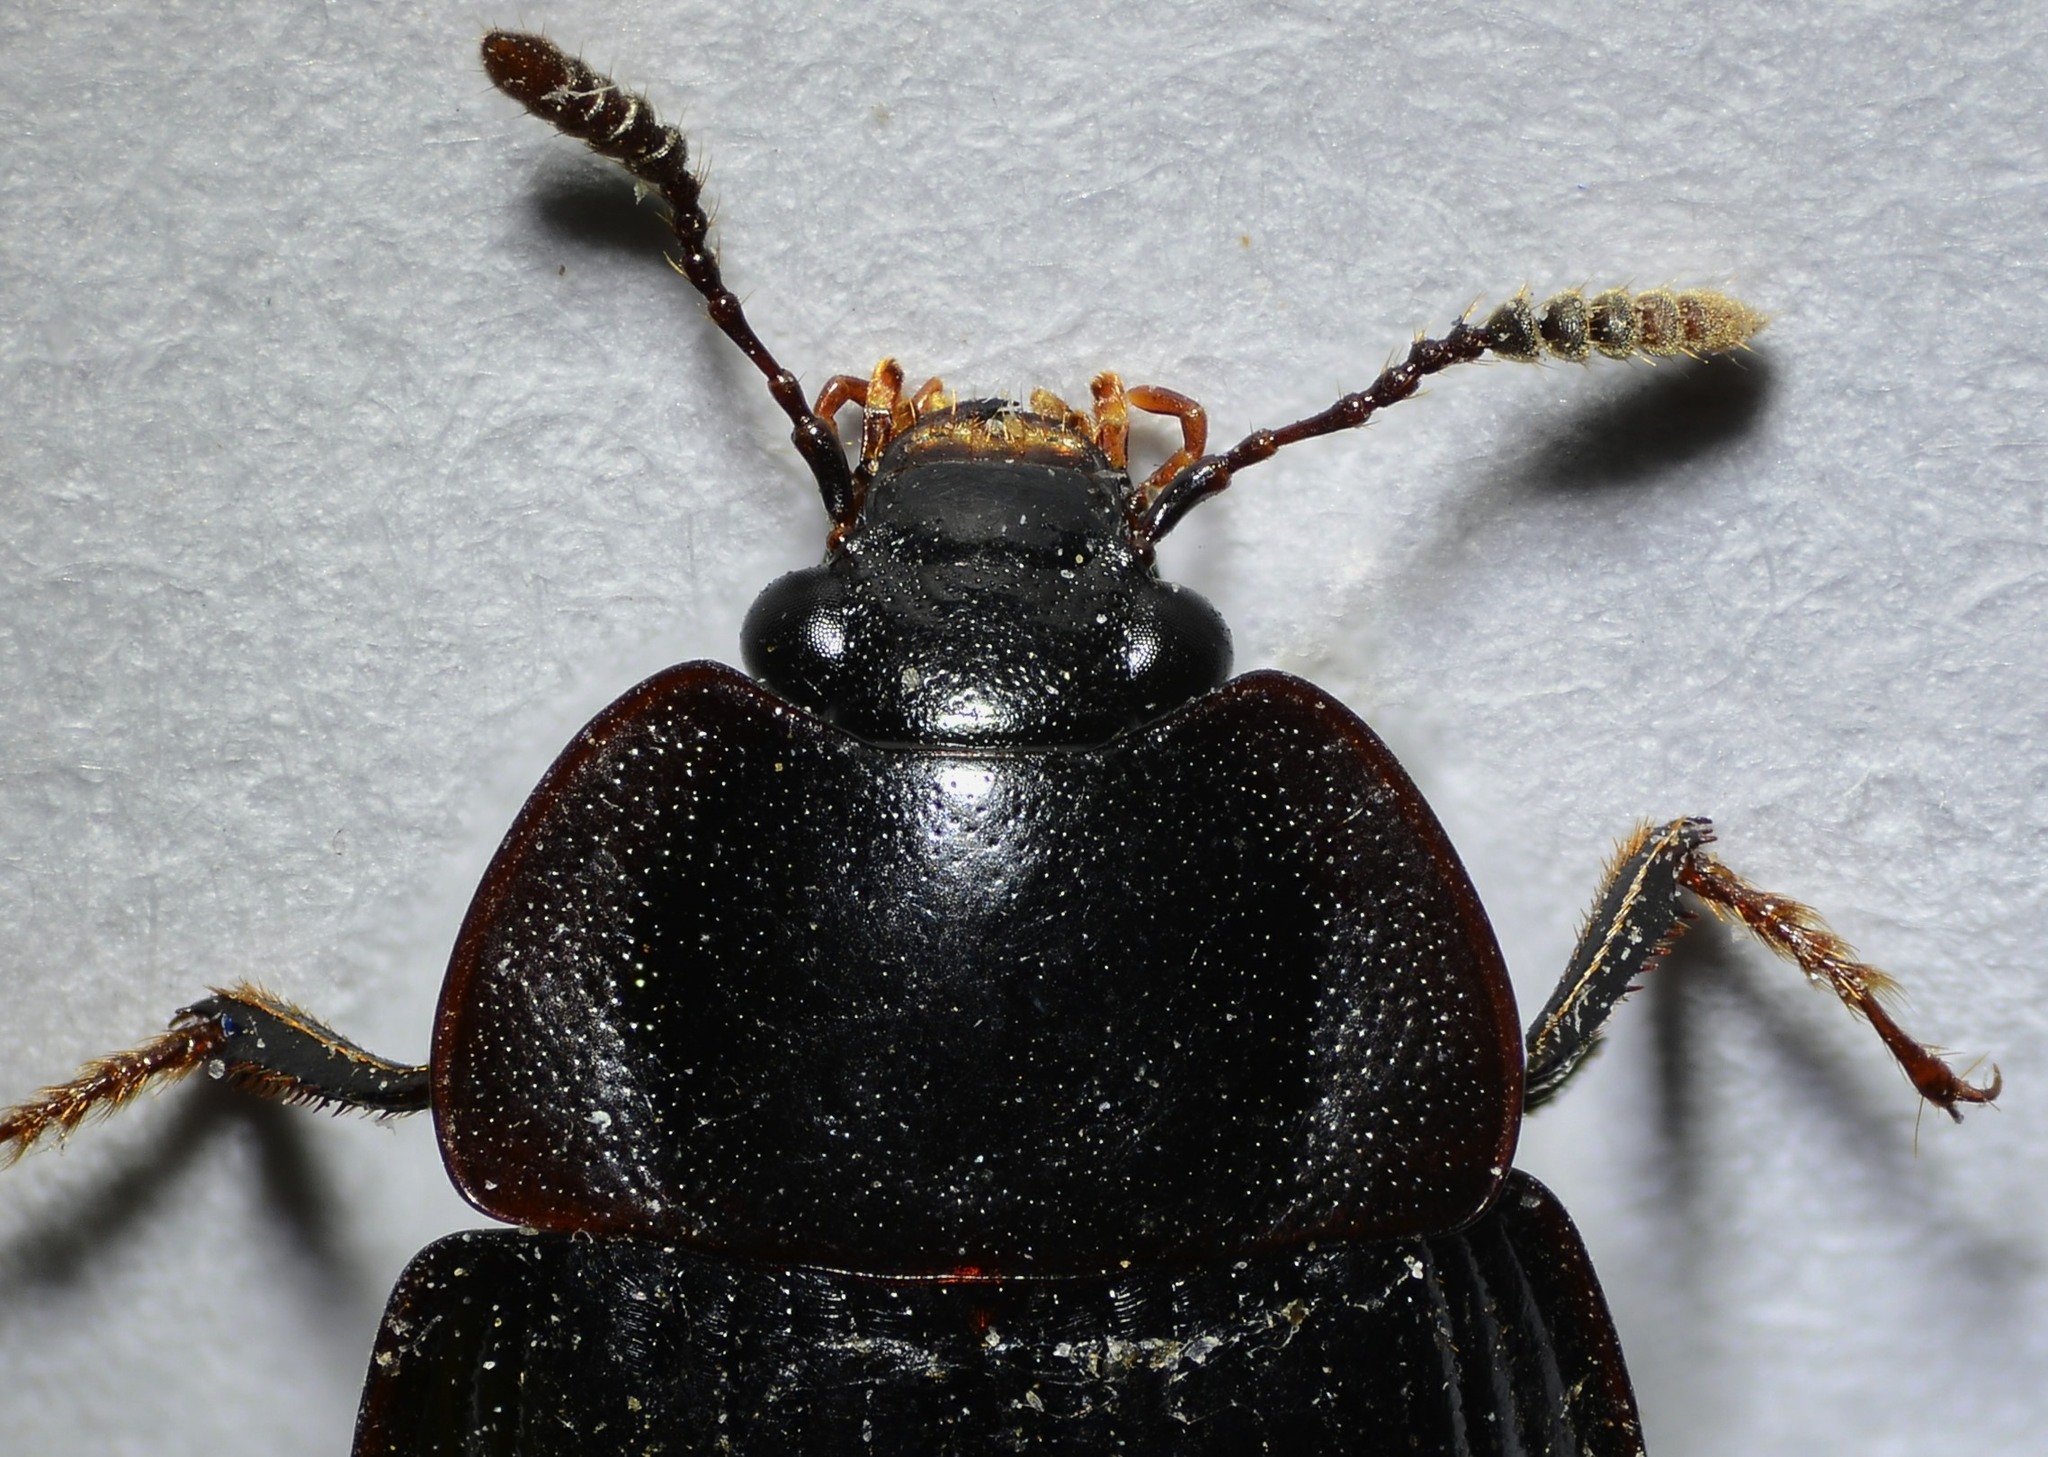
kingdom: Animalia
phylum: Arthropoda
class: Insecta
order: Coleoptera
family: Agyrtidae
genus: Necrophilus
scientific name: Necrophilus hydrophiloides
